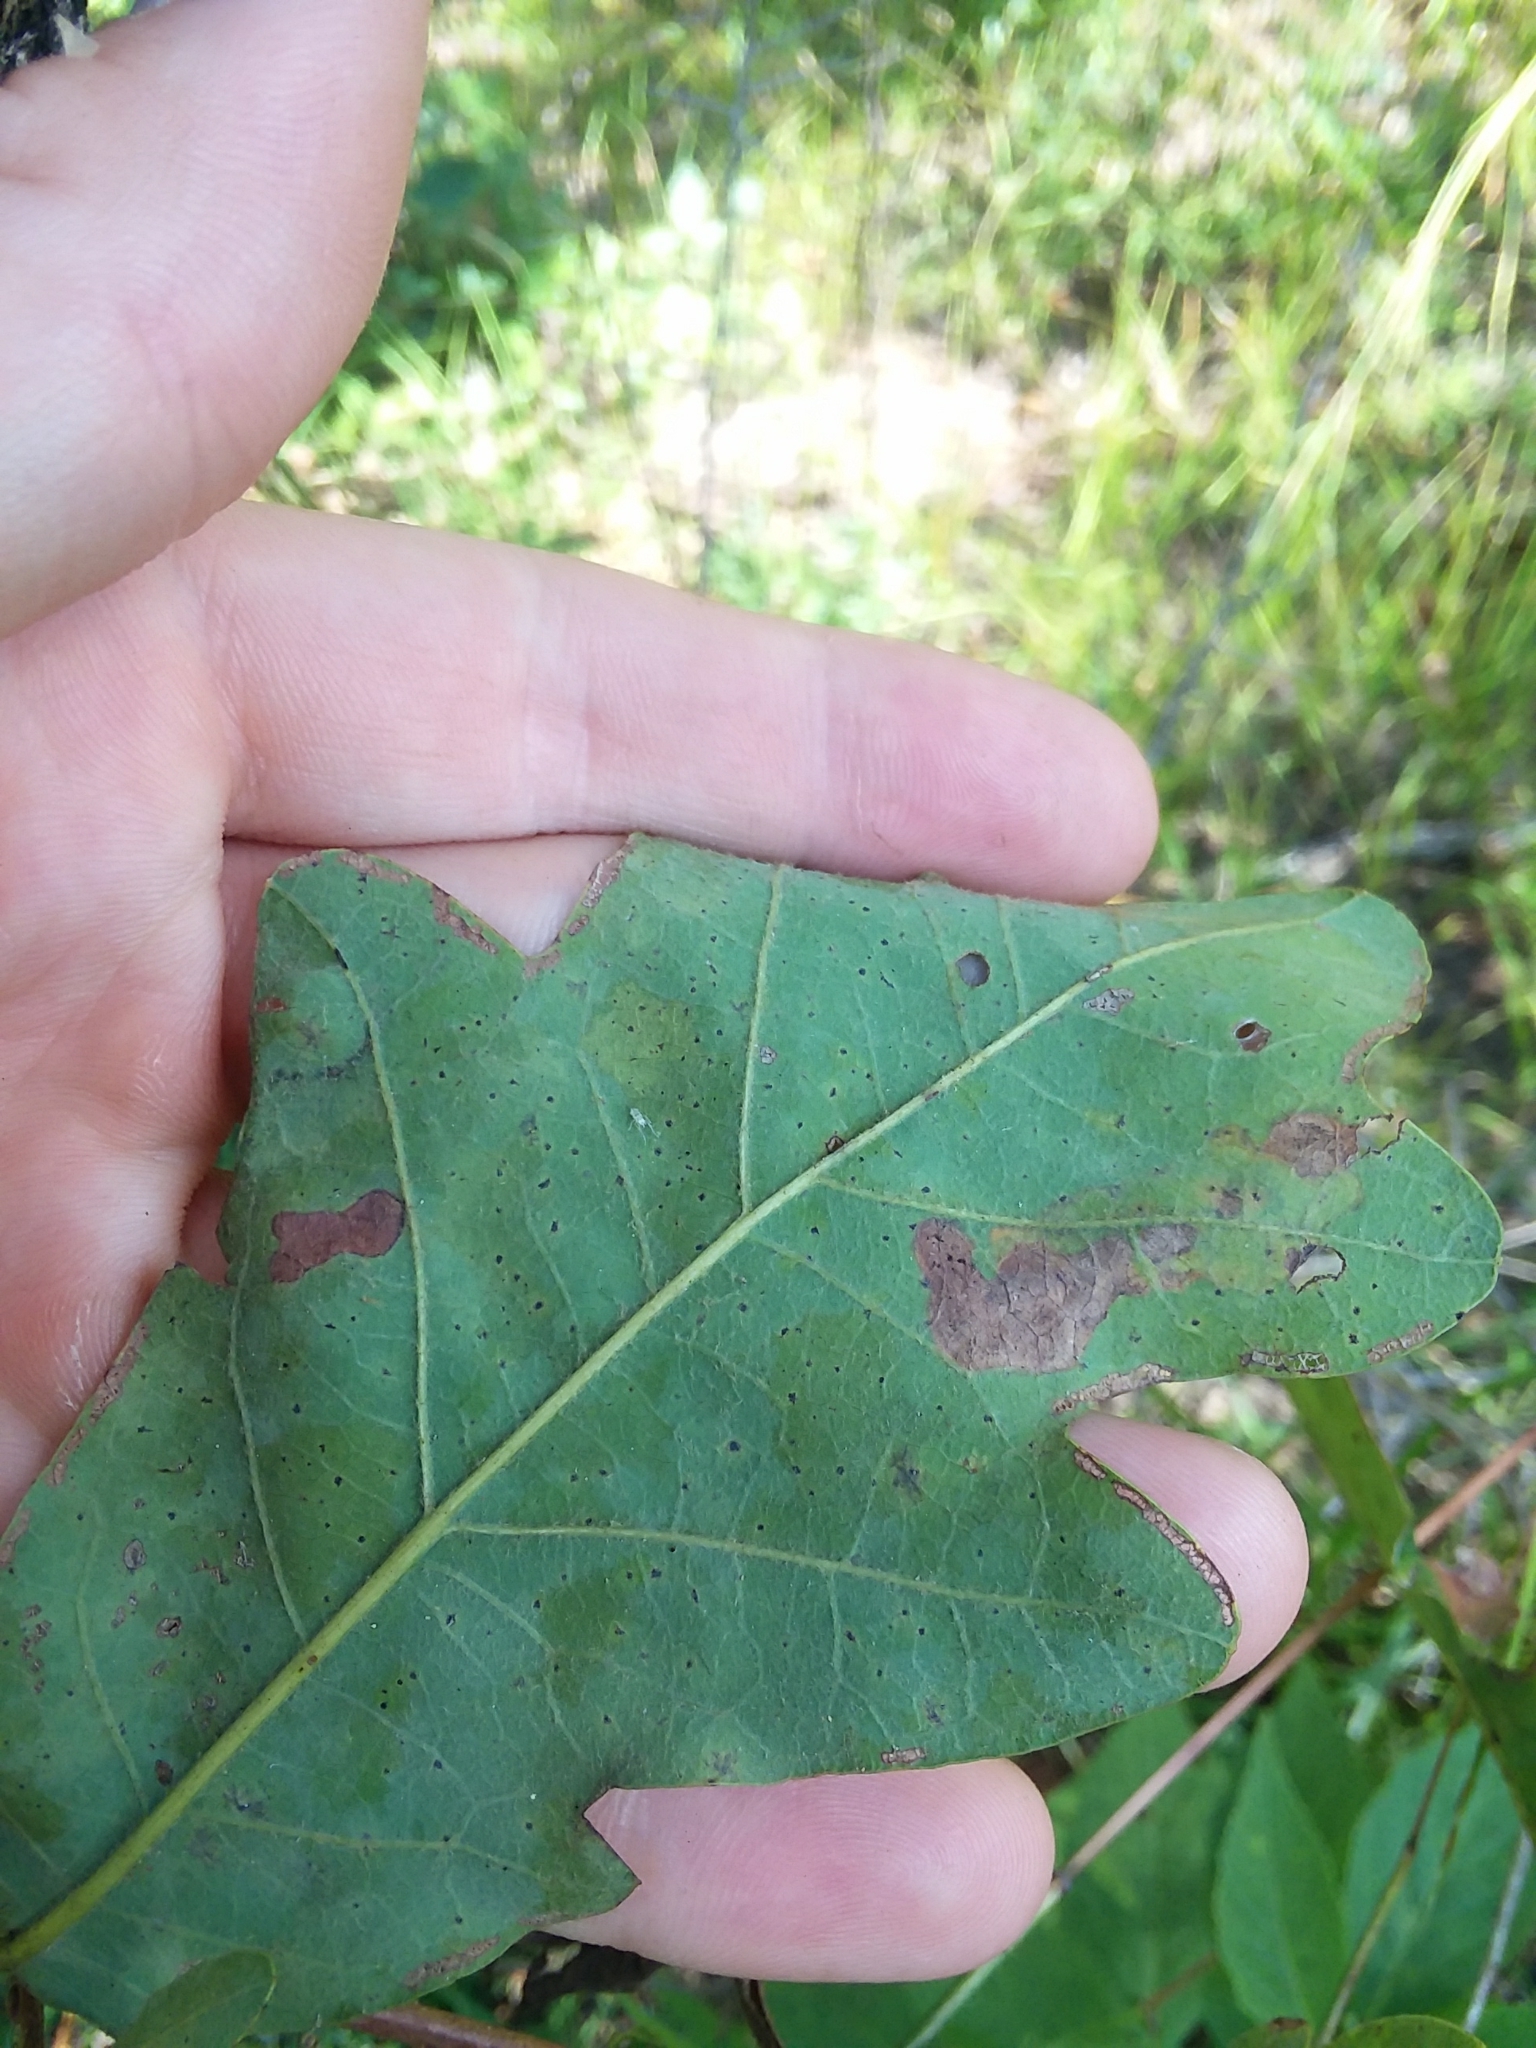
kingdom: Plantae
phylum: Tracheophyta
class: Magnoliopsida
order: Fagales
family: Fagaceae
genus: Quercus
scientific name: Quercus margaretiae
